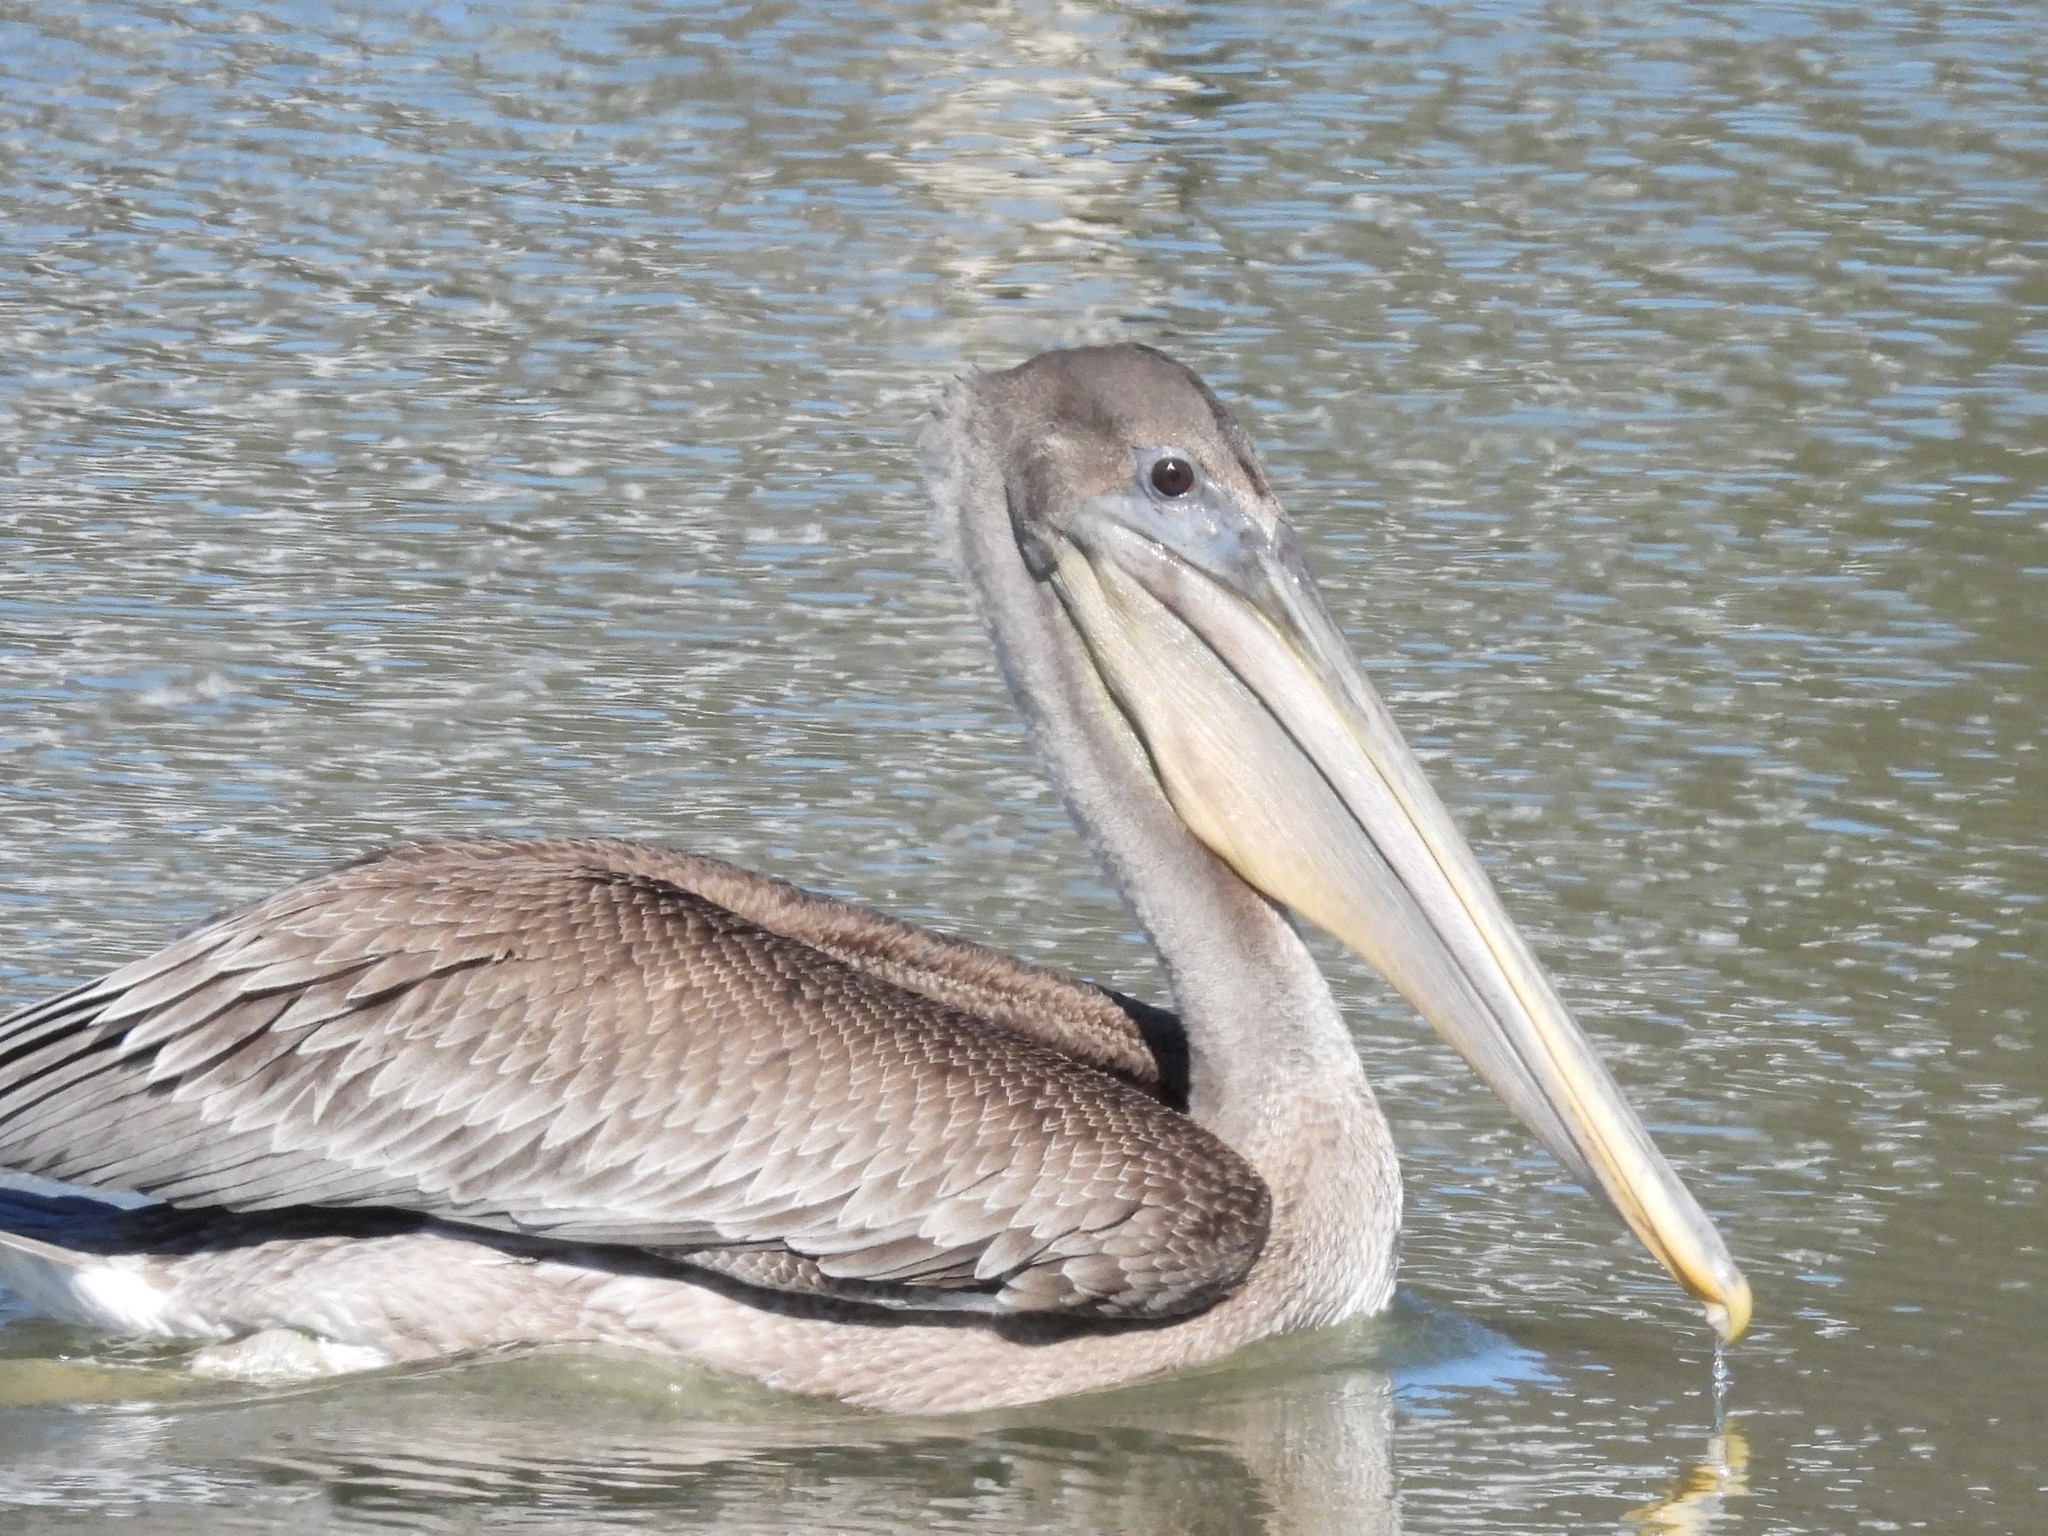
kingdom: Animalia
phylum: Chordata
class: Aves
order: Pelecaniformes
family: Pelecanidae
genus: Pelecanus
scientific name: Pelecanus occidentalis
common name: Brown pelican
